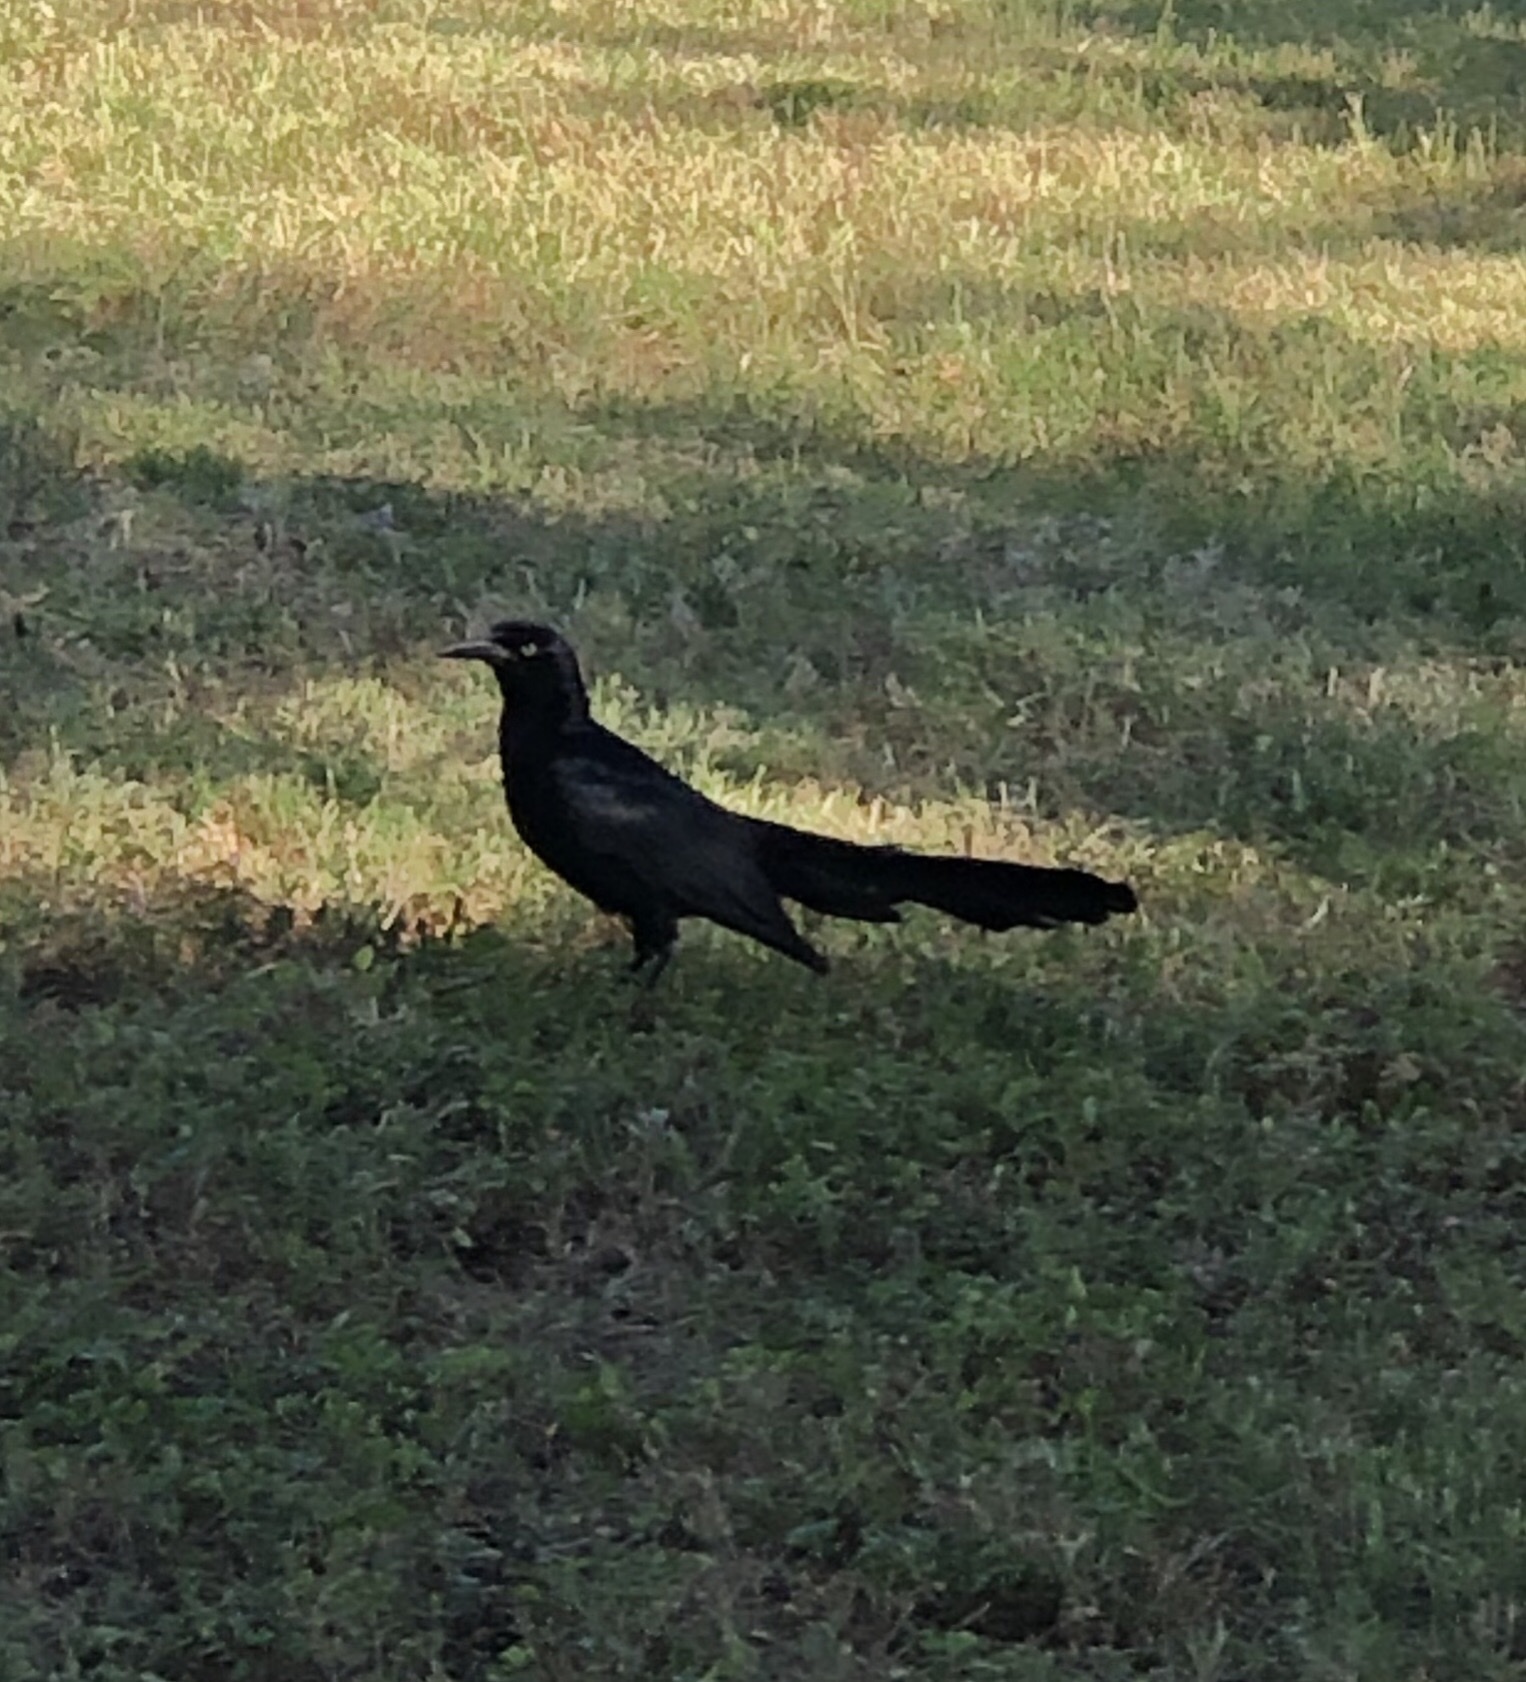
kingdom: Animalia
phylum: Chordata
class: Aves
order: Passeriformes
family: Icteridae
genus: Quiscalus
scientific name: Quiscalus mexicanus
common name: Great-tailed grackle
